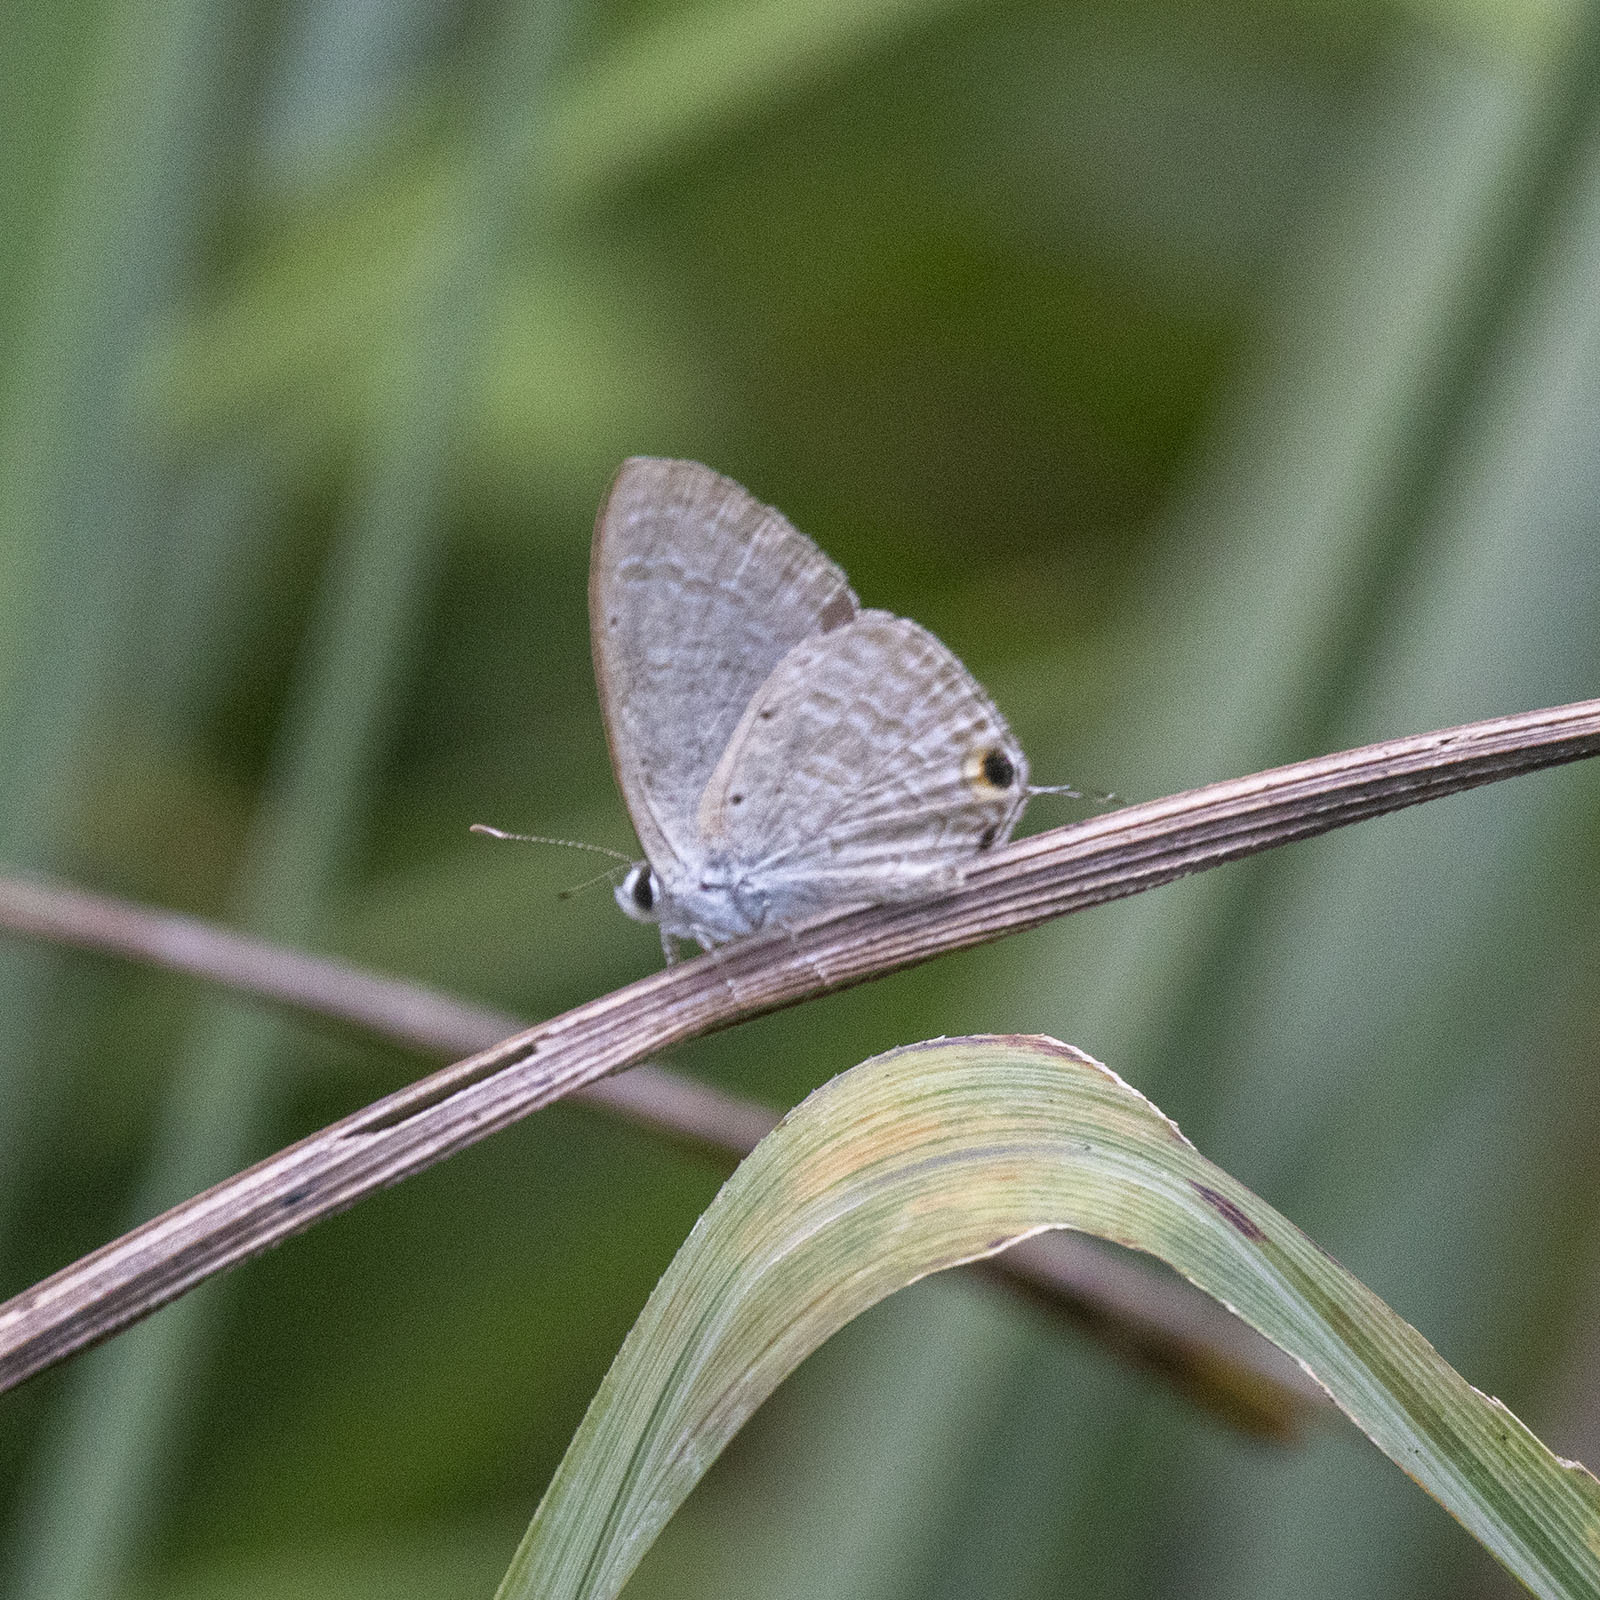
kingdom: Animalia
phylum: Arthropoda
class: Insecta
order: Lepidoptera
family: Lycaenidae
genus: Catochrysops
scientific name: Catochrysops strabo
